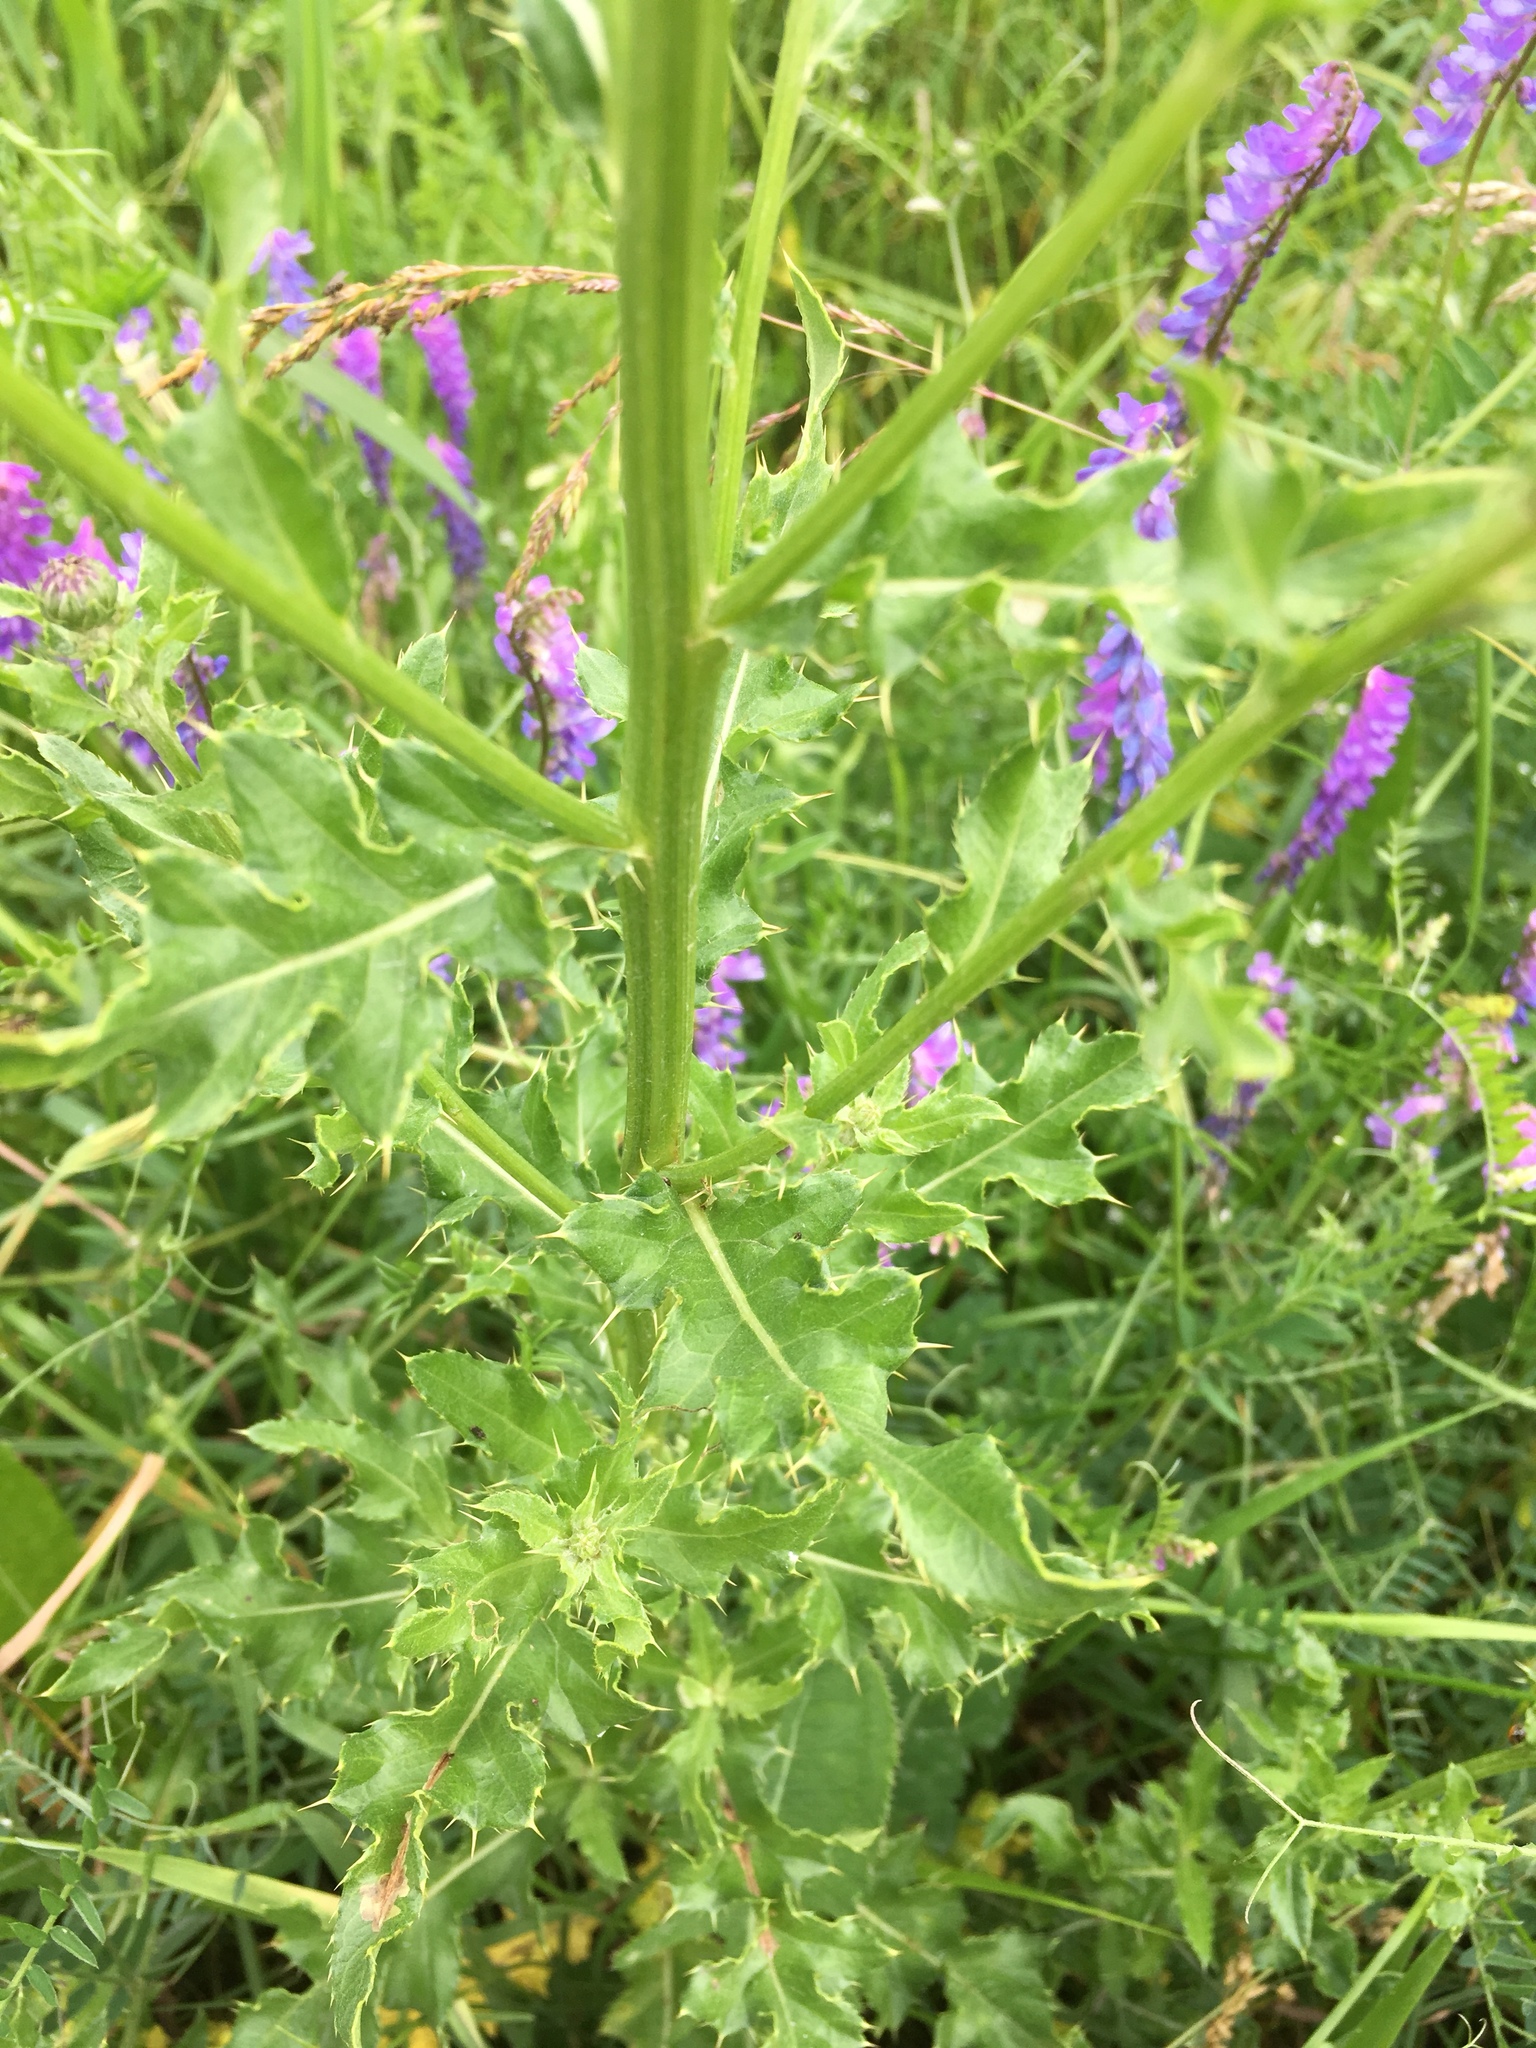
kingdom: Plantae
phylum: Tracheophyta
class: Magnoliopsida
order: Asterales
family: Asteraceae
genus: Cirsium
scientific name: Cirsium arvense
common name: Creeping thistle
